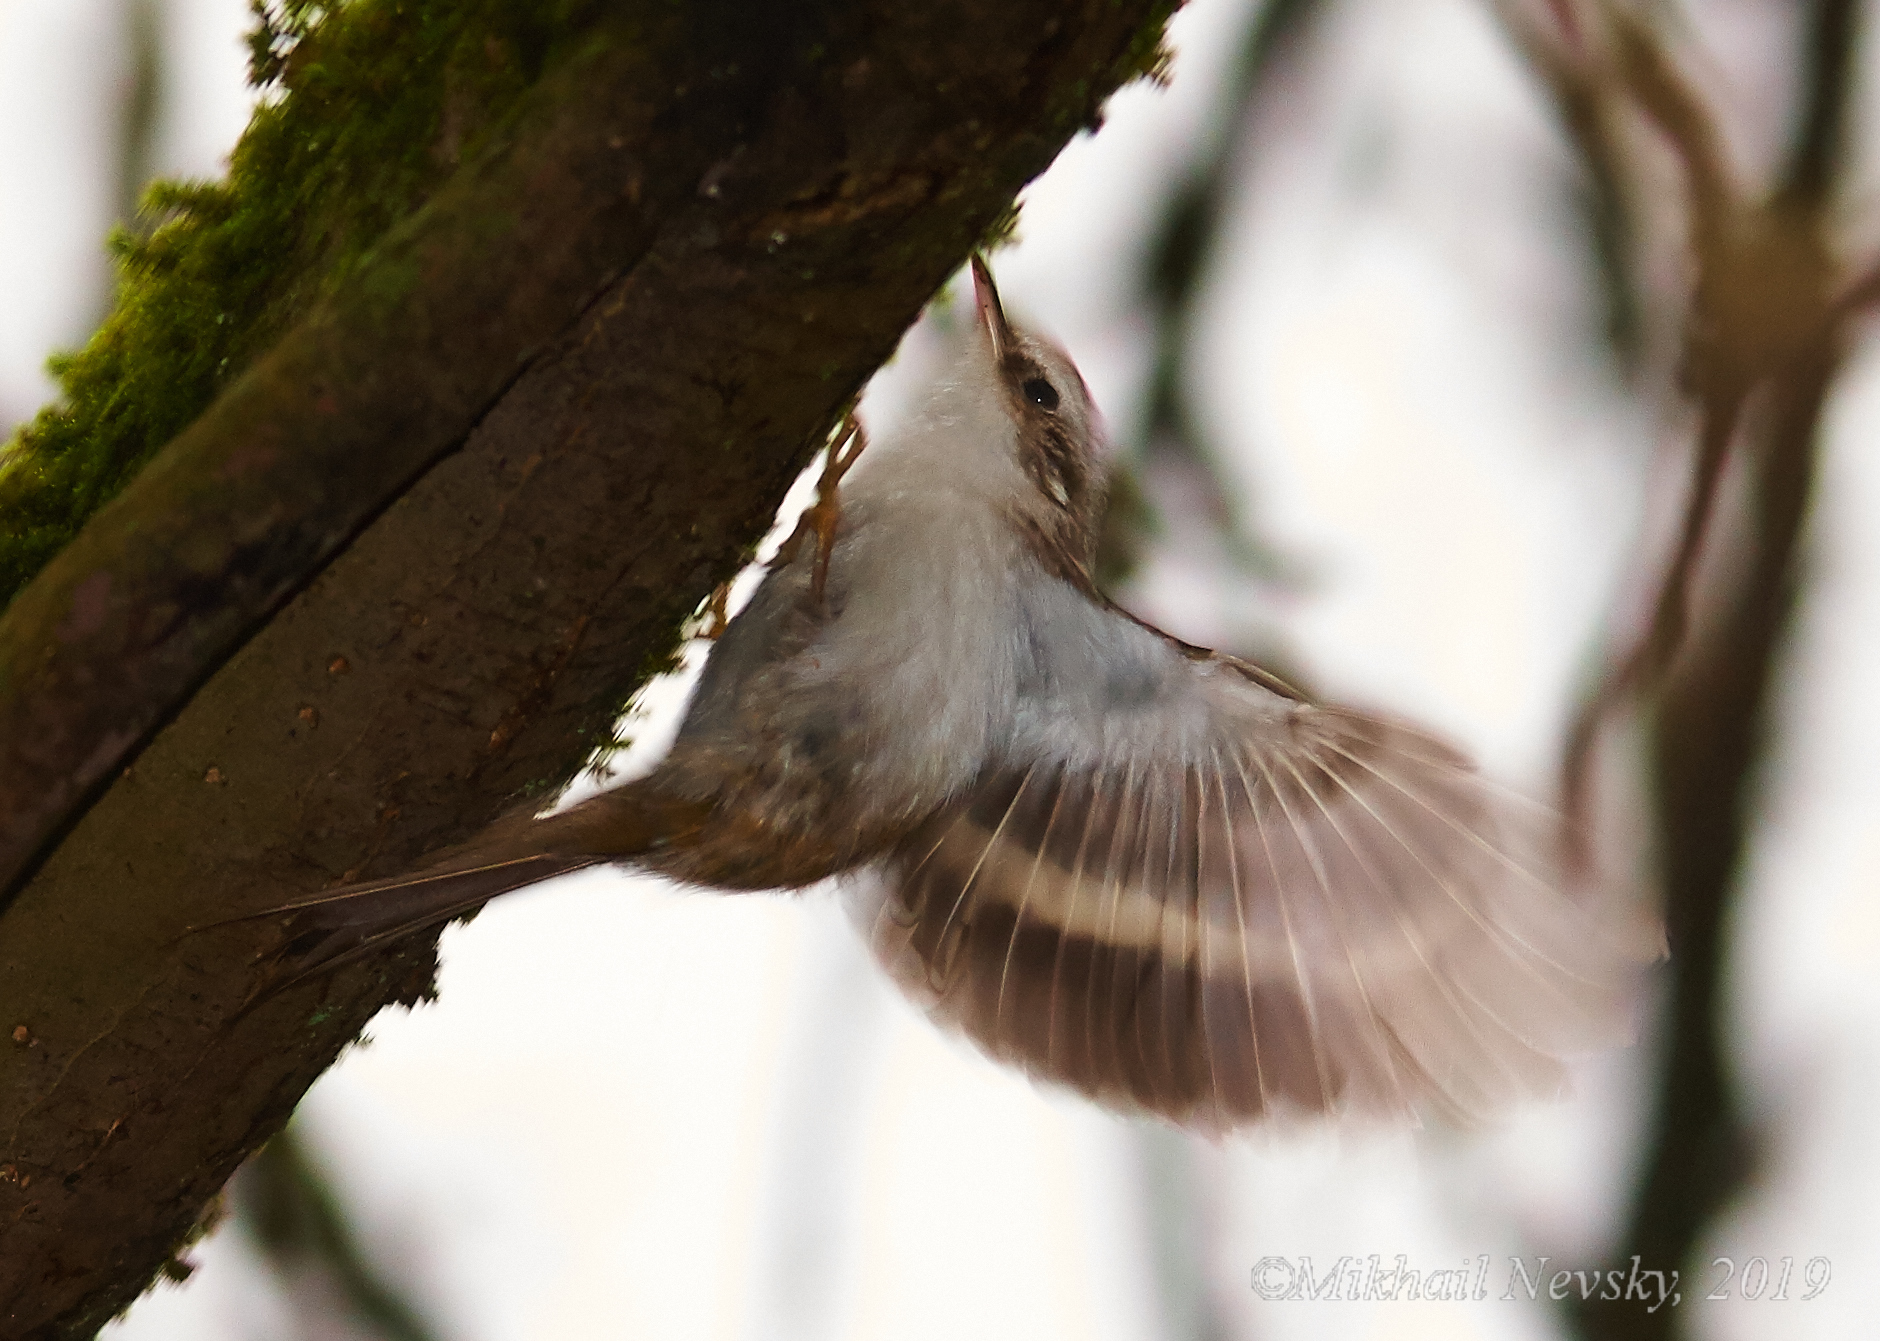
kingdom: Animalia
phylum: Chordata
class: Aves
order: Passeriformes
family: Certhiidae
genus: Certhia
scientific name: Certhia familiaris
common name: Eurasian treecreeper
